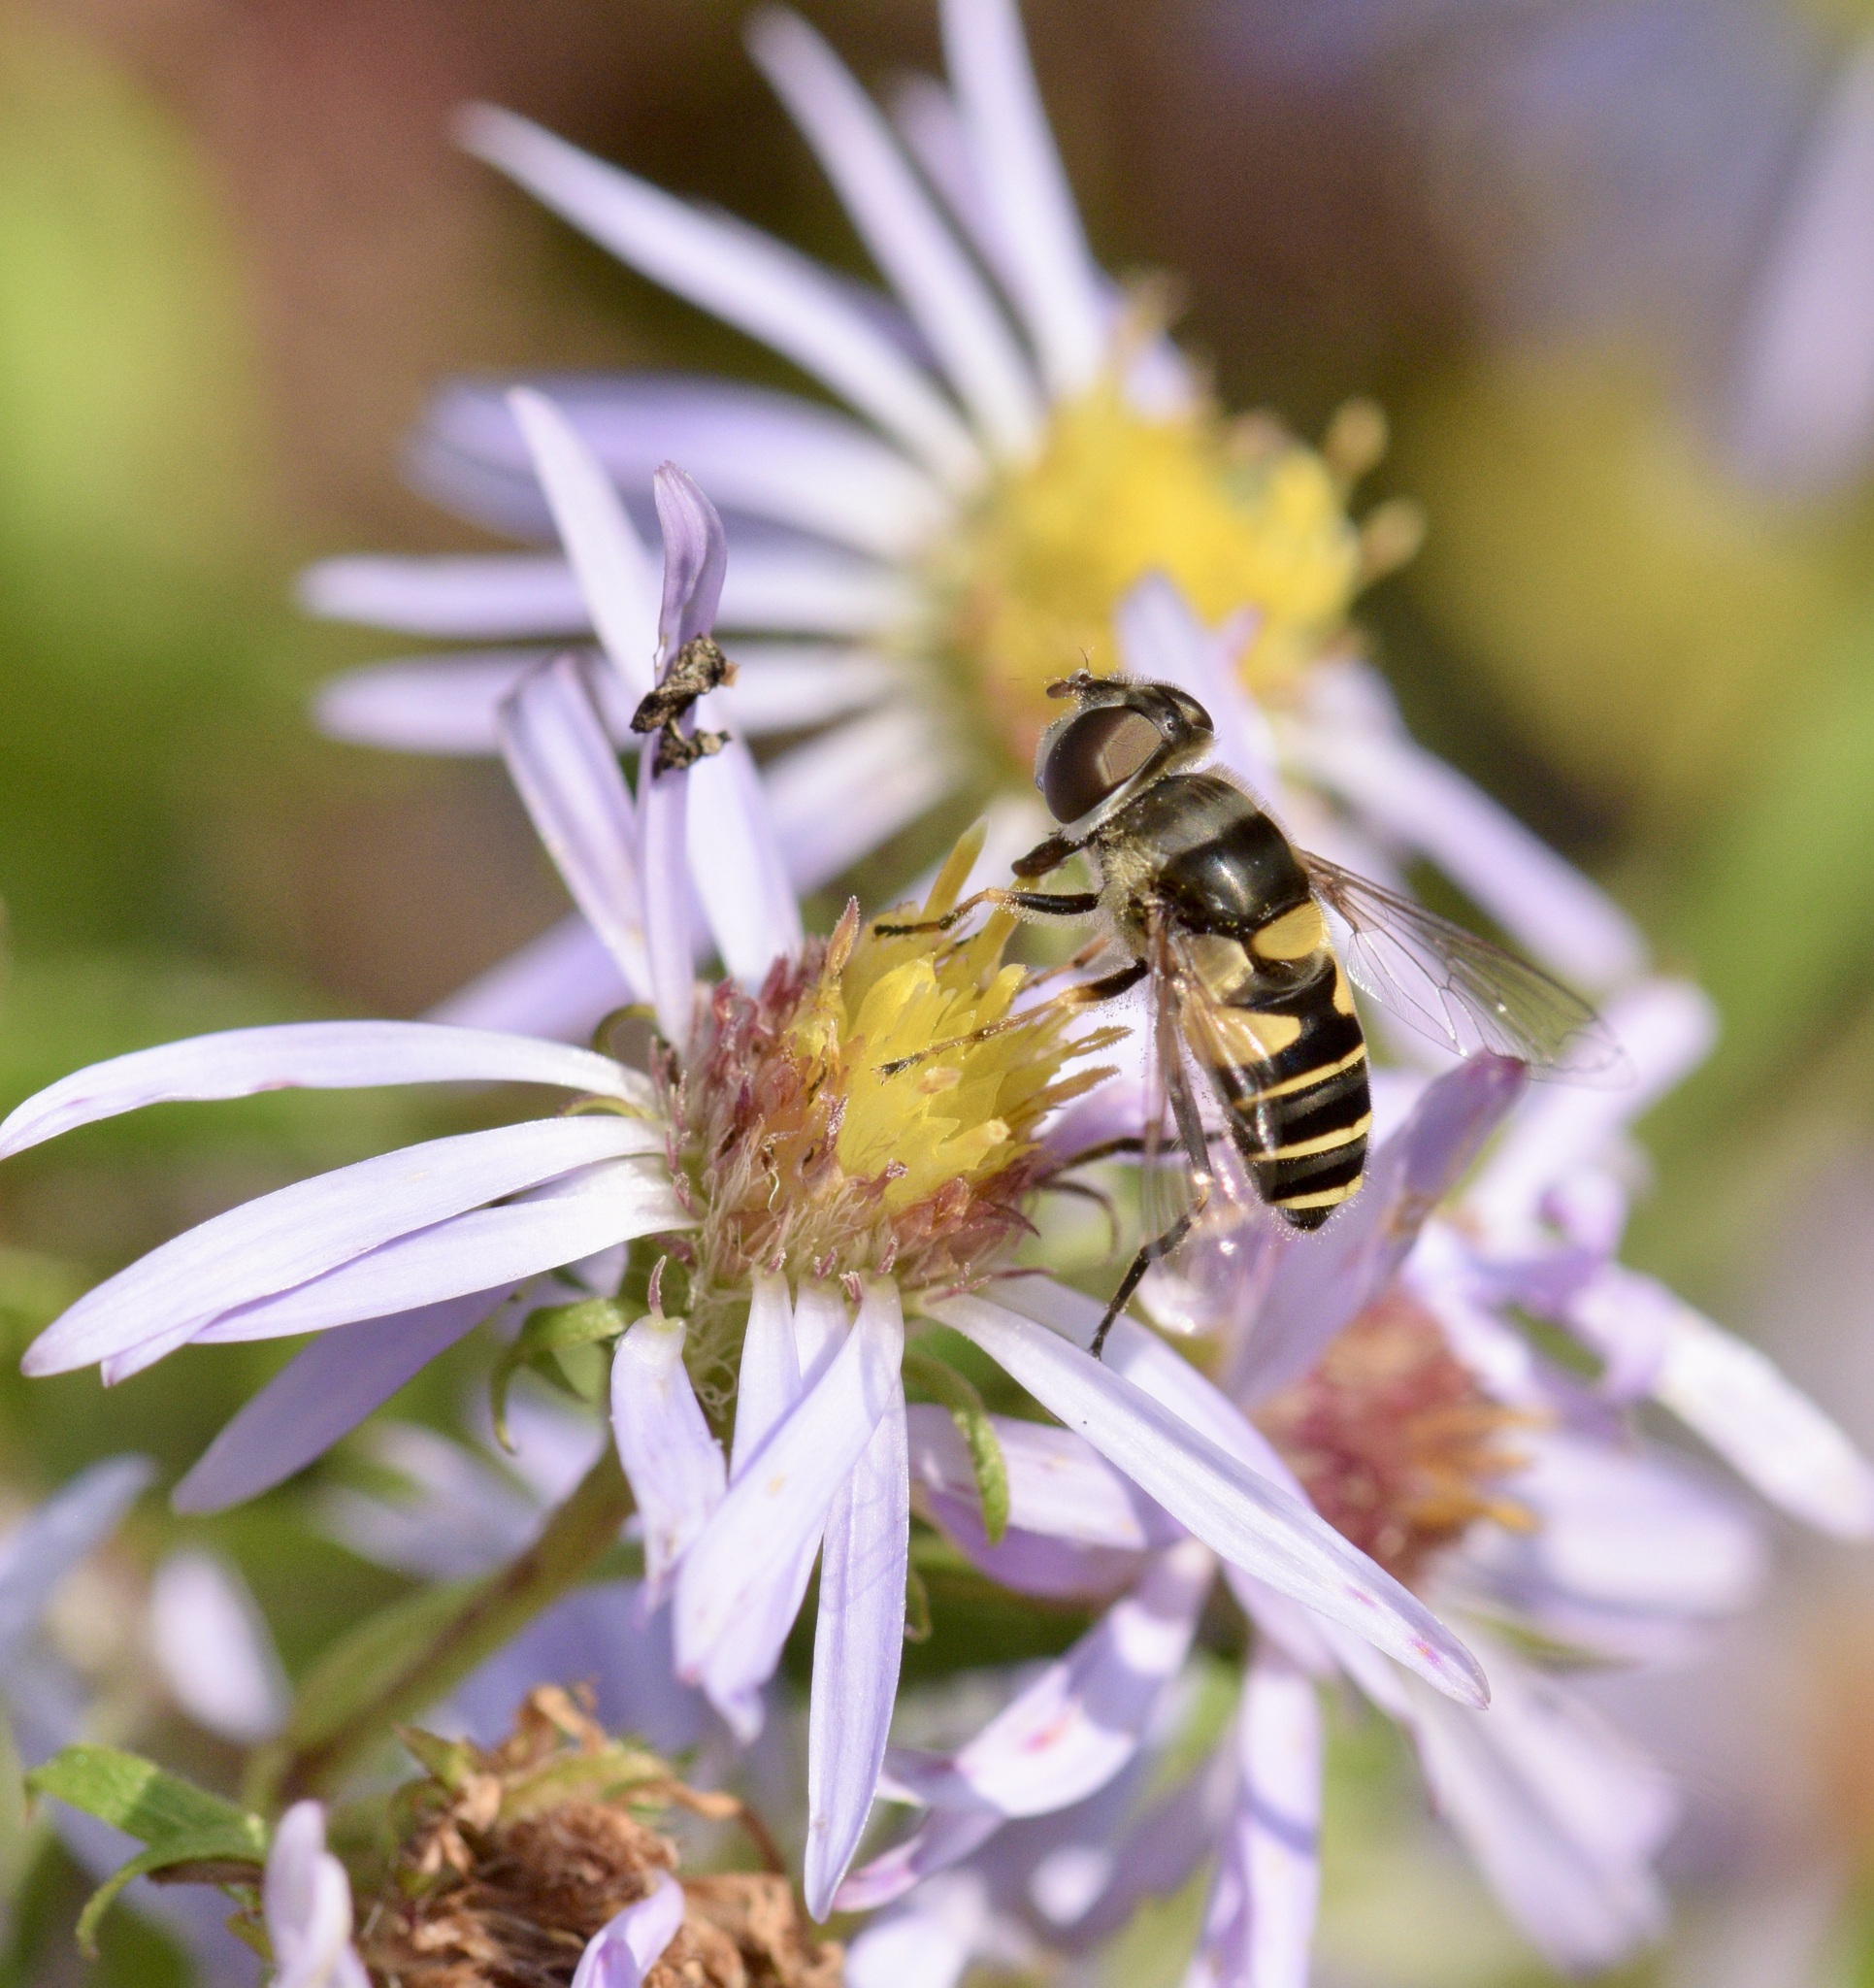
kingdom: Animalia
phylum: Arthropoda
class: Insecta
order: Diptera
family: Syrphidae
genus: Eristalis
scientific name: Eristalis transversa
